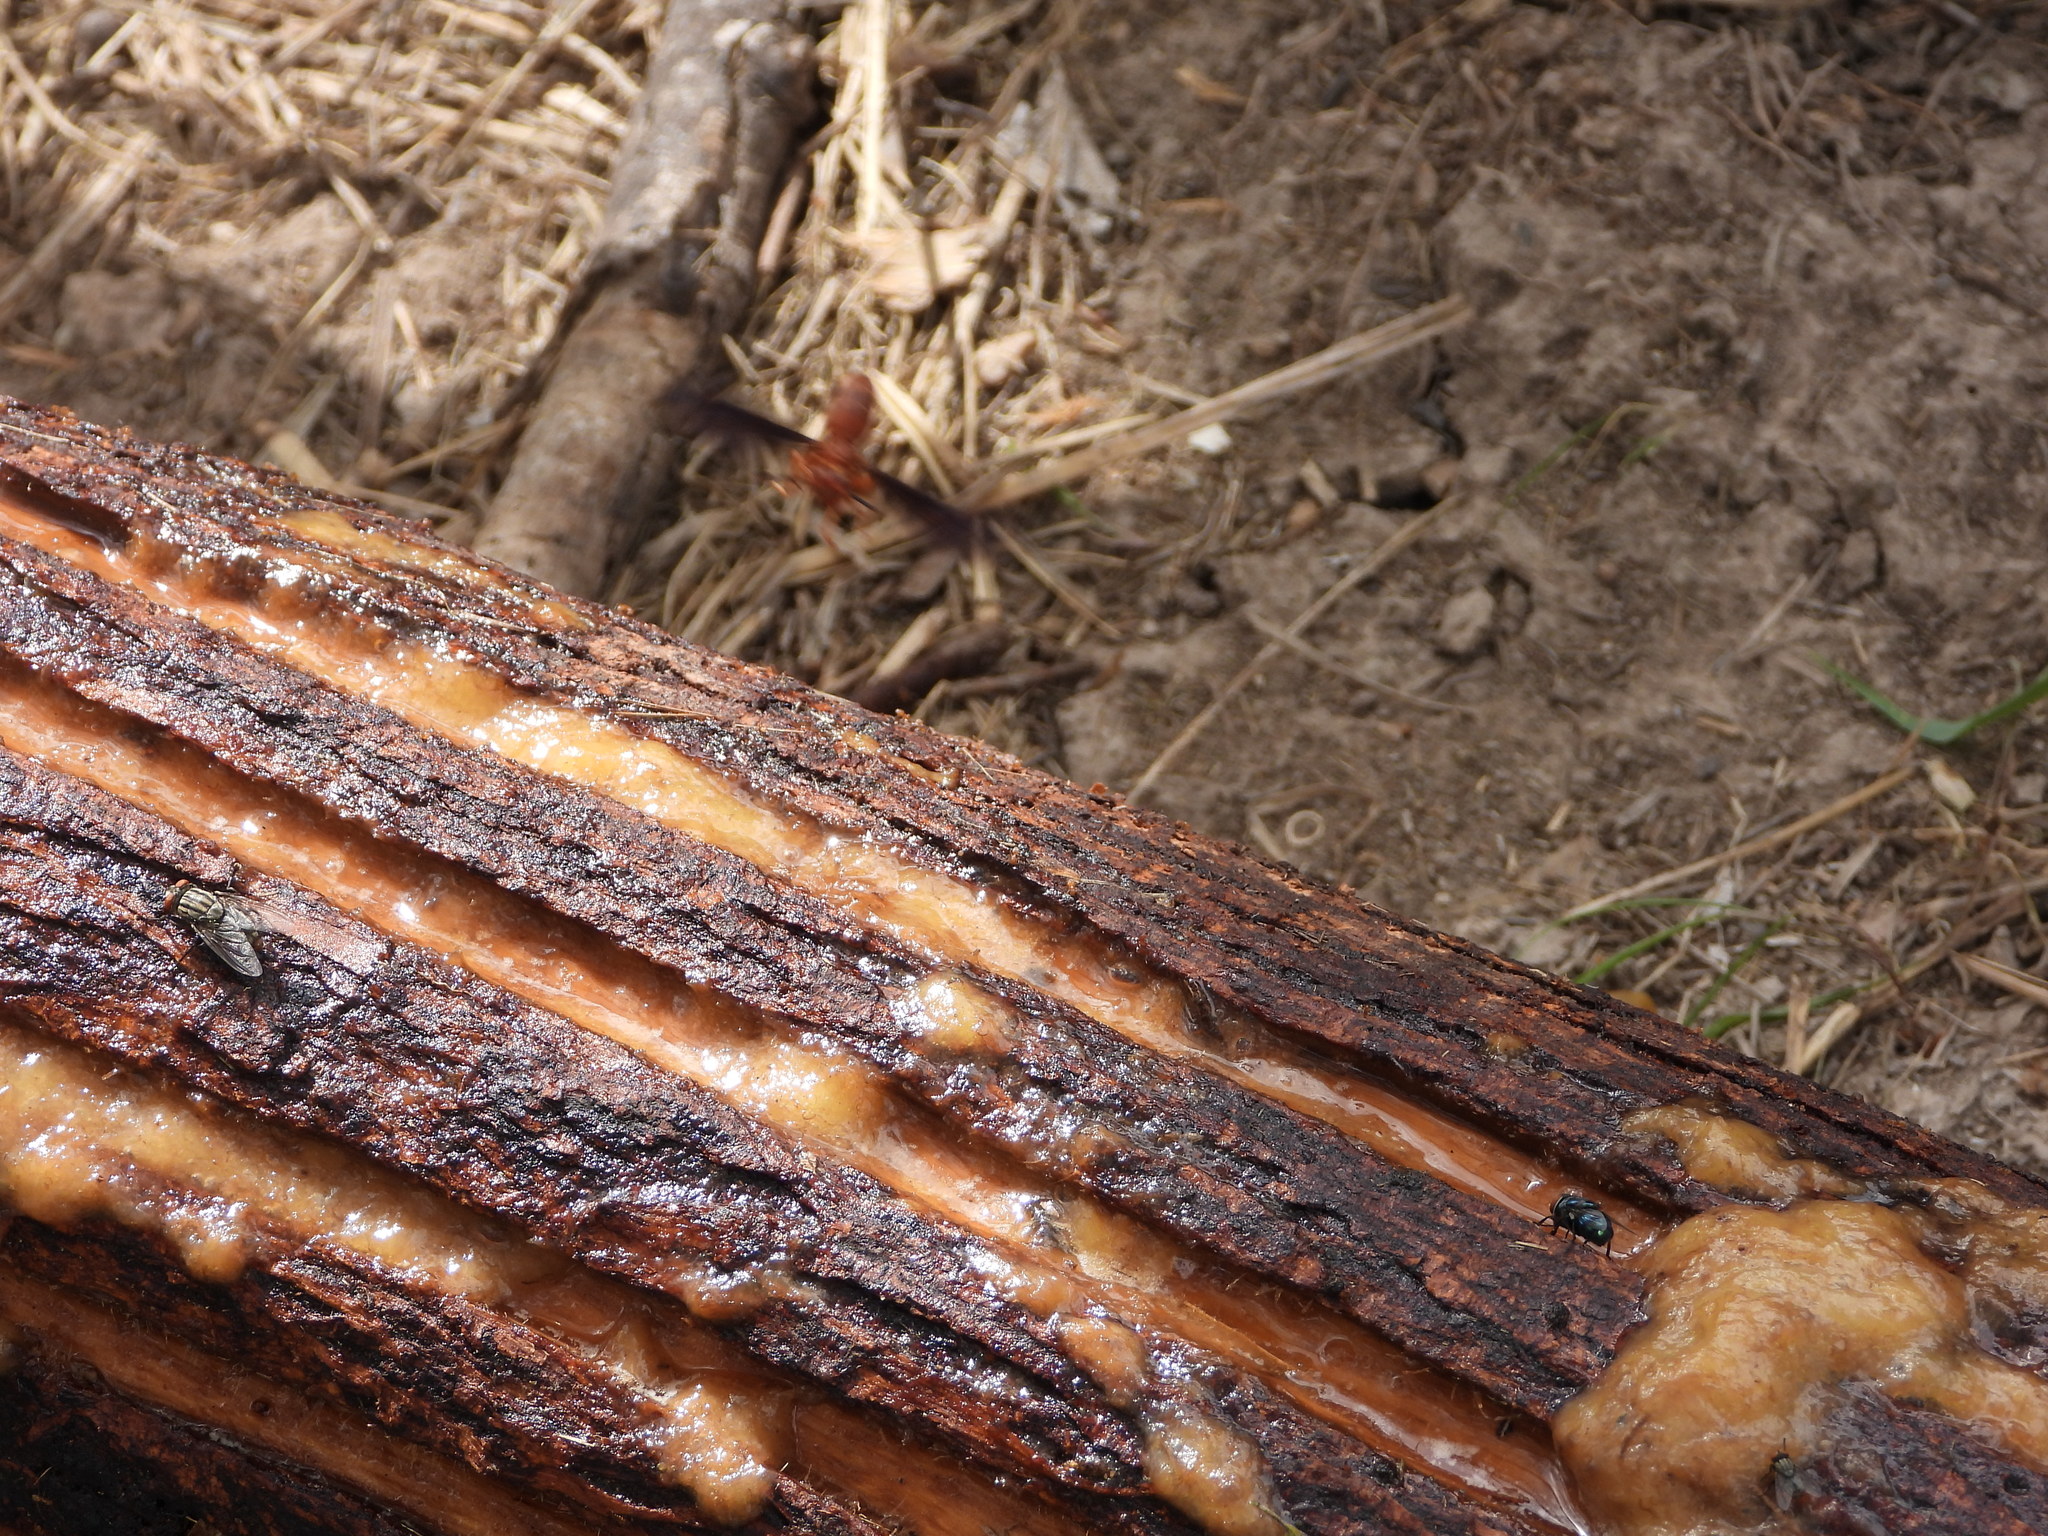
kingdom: Animalia
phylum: Arthropoda
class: Insecta
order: Hymenoptera
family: Eumenidae
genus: Polistes
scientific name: Polistes carolina
